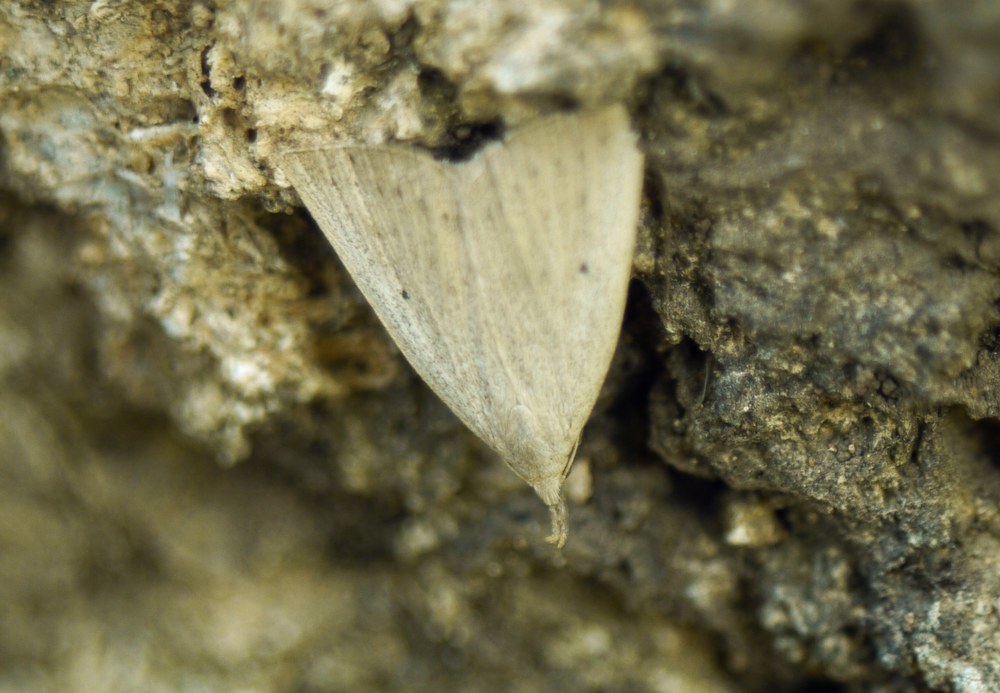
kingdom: Animalia
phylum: Arthropoda
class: Insecta
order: Lepidoptera
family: Erebidae
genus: Macrochilo
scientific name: Macrochilo cribrumalis
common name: Dotted fan-foot
